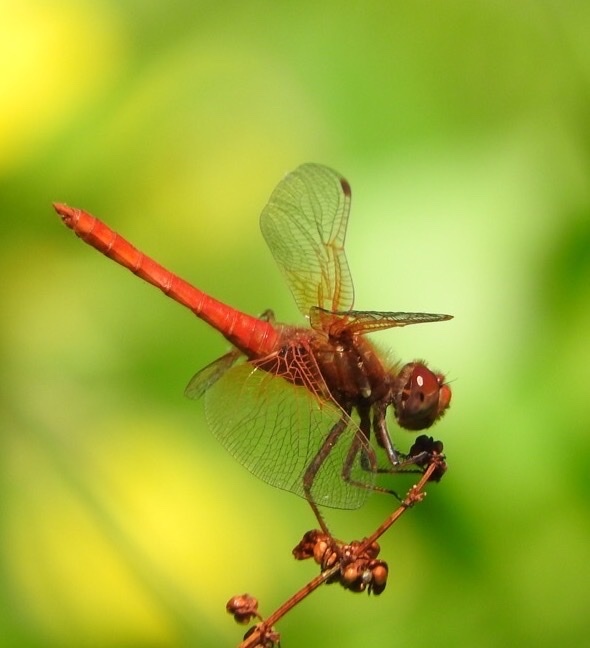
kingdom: Animalia
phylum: Arthropoda
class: Insecta
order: Odonata
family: Libellulidae
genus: Sympetrum
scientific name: Sympetrum illotum
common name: Cardinal meadowhawk
